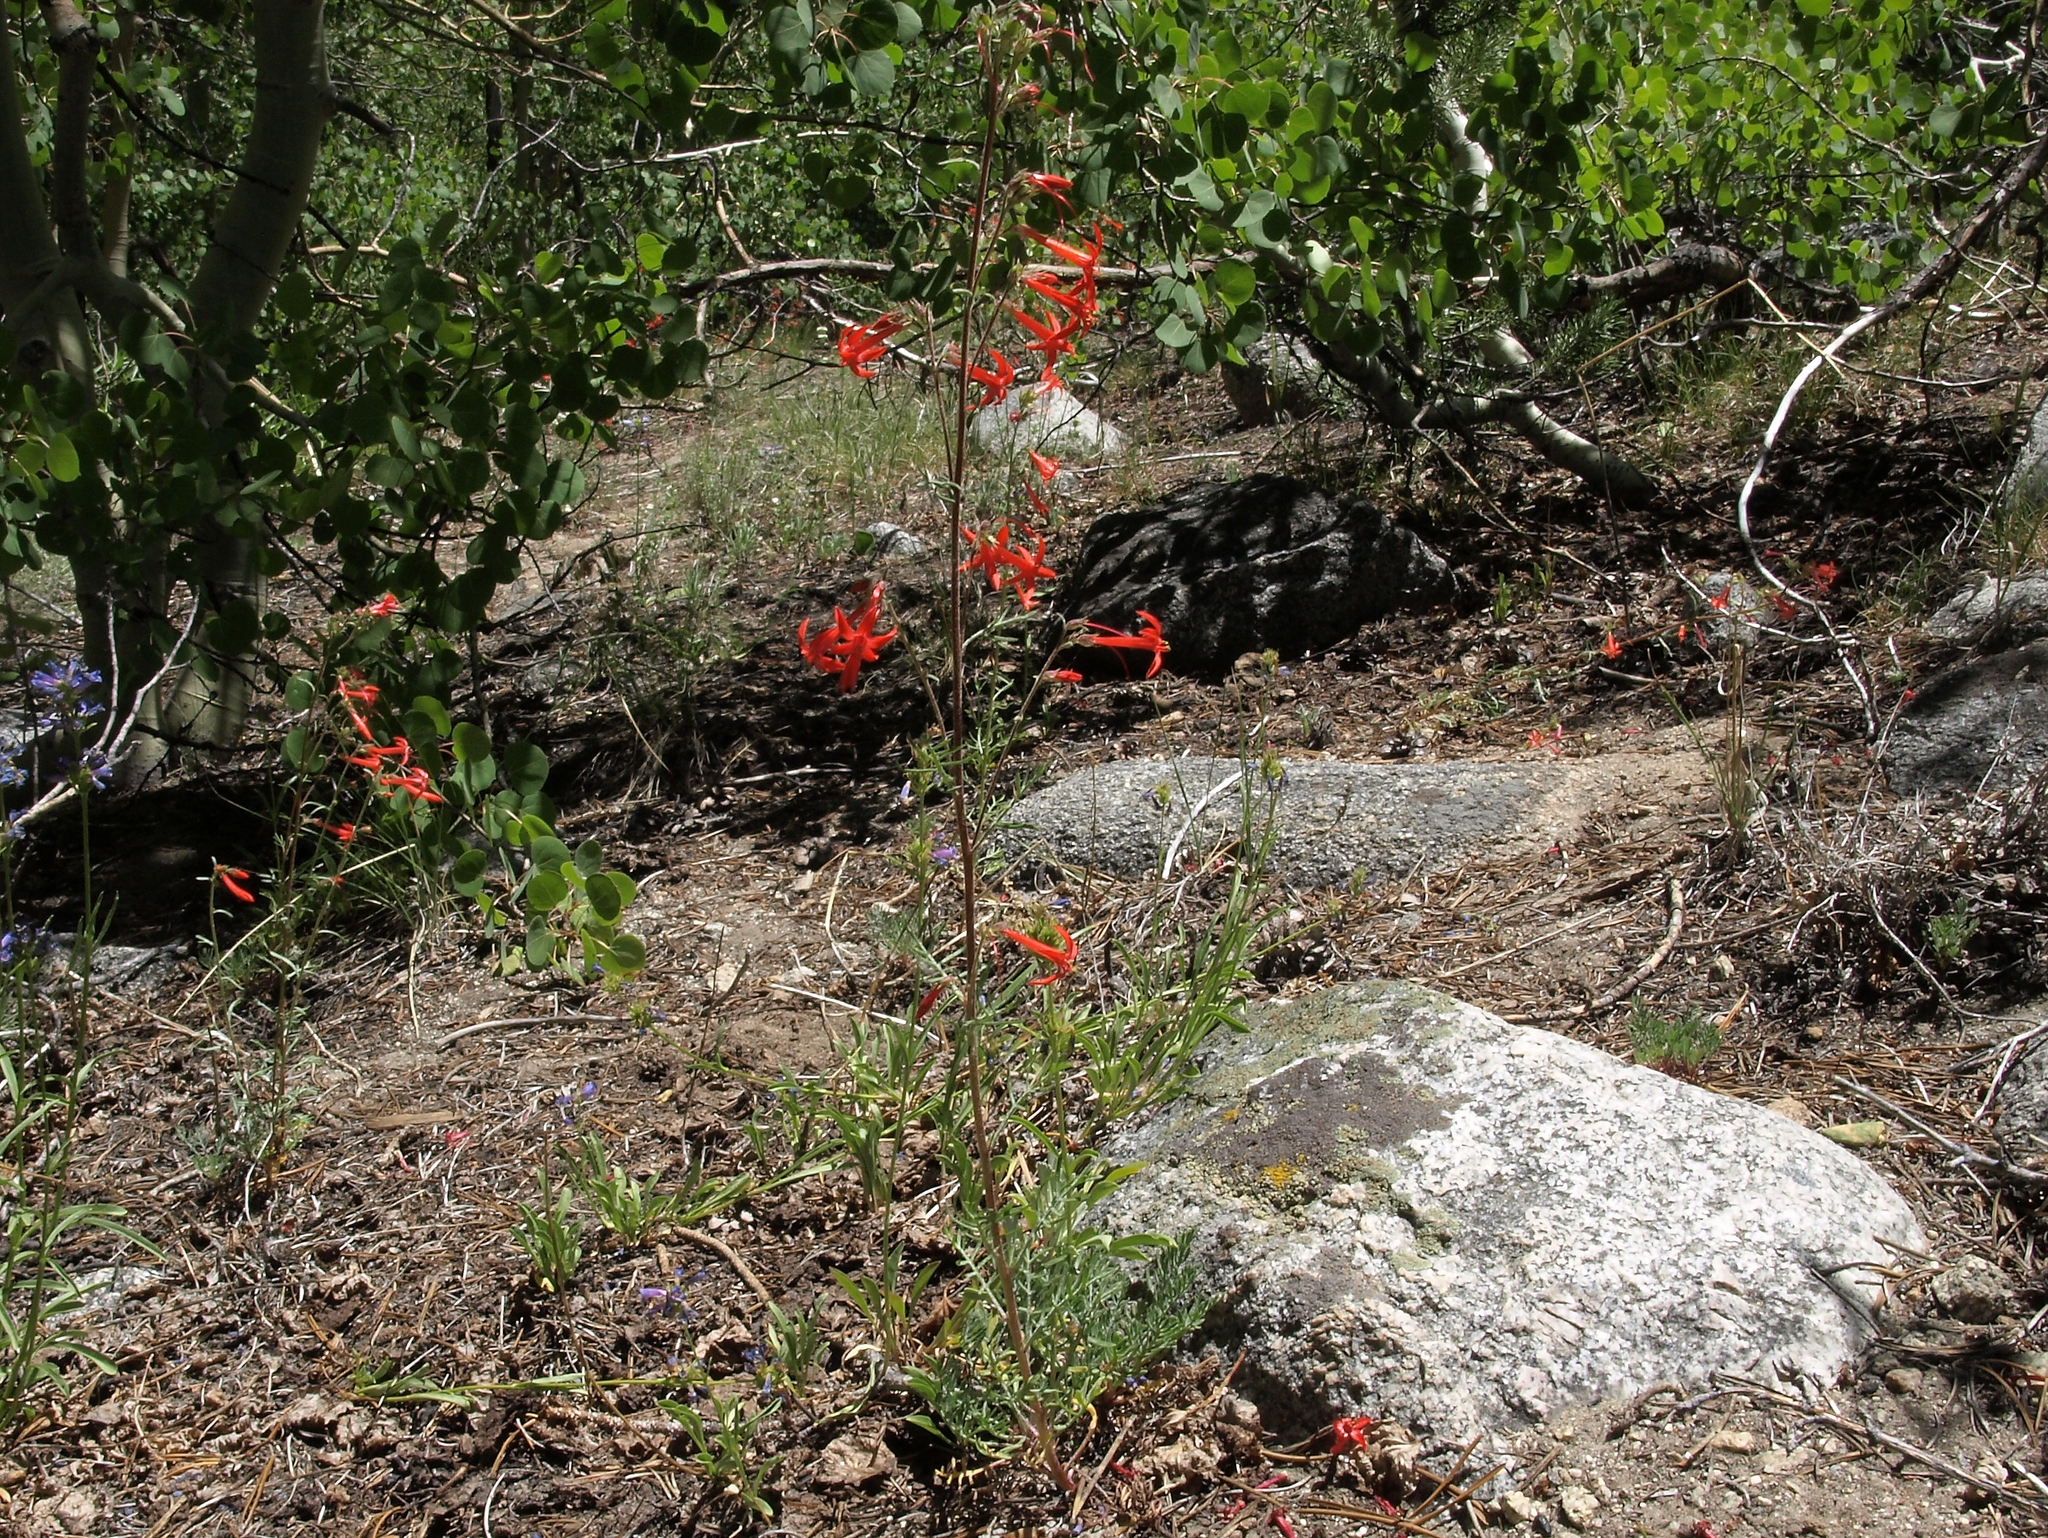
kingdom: Plantae
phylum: Tracheophyta
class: Magnoliopsida
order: Ericales
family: Polemoniaceae
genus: Ipomopsis
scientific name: Ipomopsis aggregata
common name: Scarlet gilia
